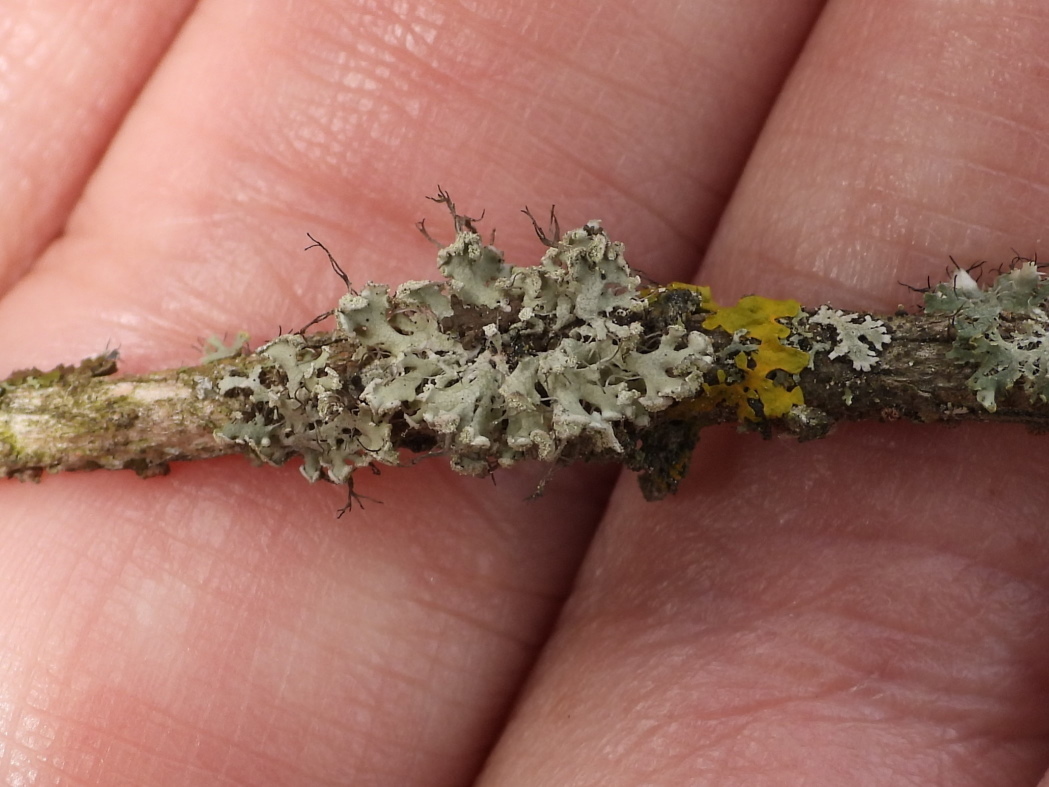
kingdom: Fungi
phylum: Ascomycota
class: Lecanoromycetes
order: Caliciales
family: Physciaceae
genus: Physcia
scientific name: Physcia tenella
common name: Fringed rosette lichen
